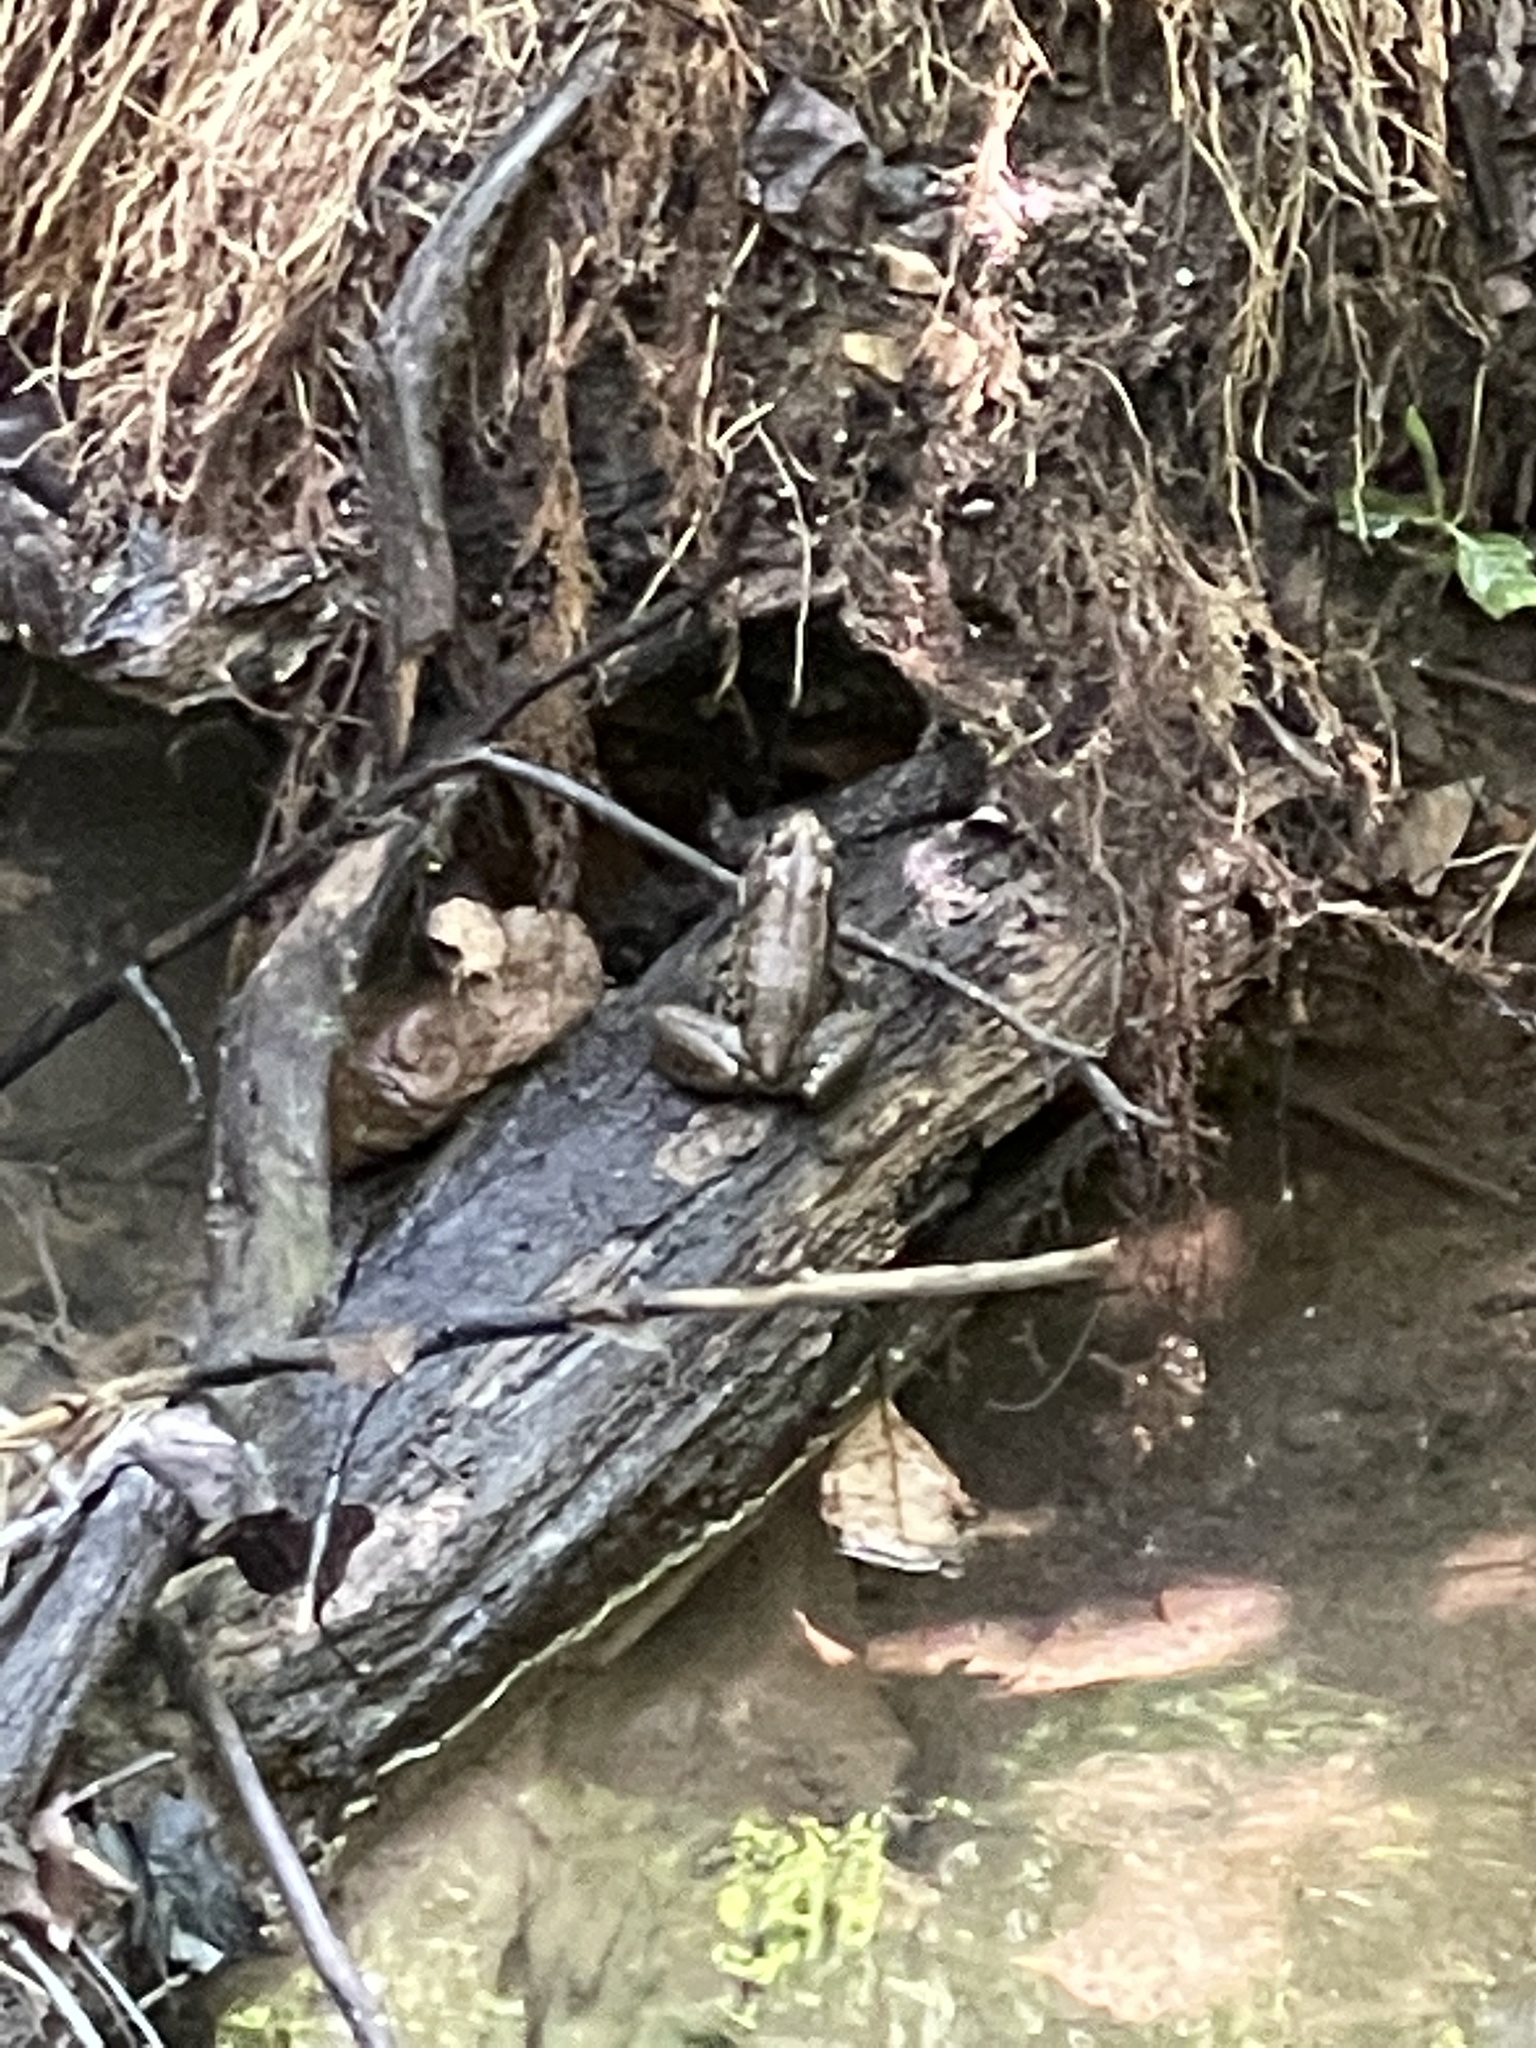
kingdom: Animalia
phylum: Chordata
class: Amphibia
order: Anura
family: Ranidae
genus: Lithobates
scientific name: Lithobates clamitans
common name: Green frog
